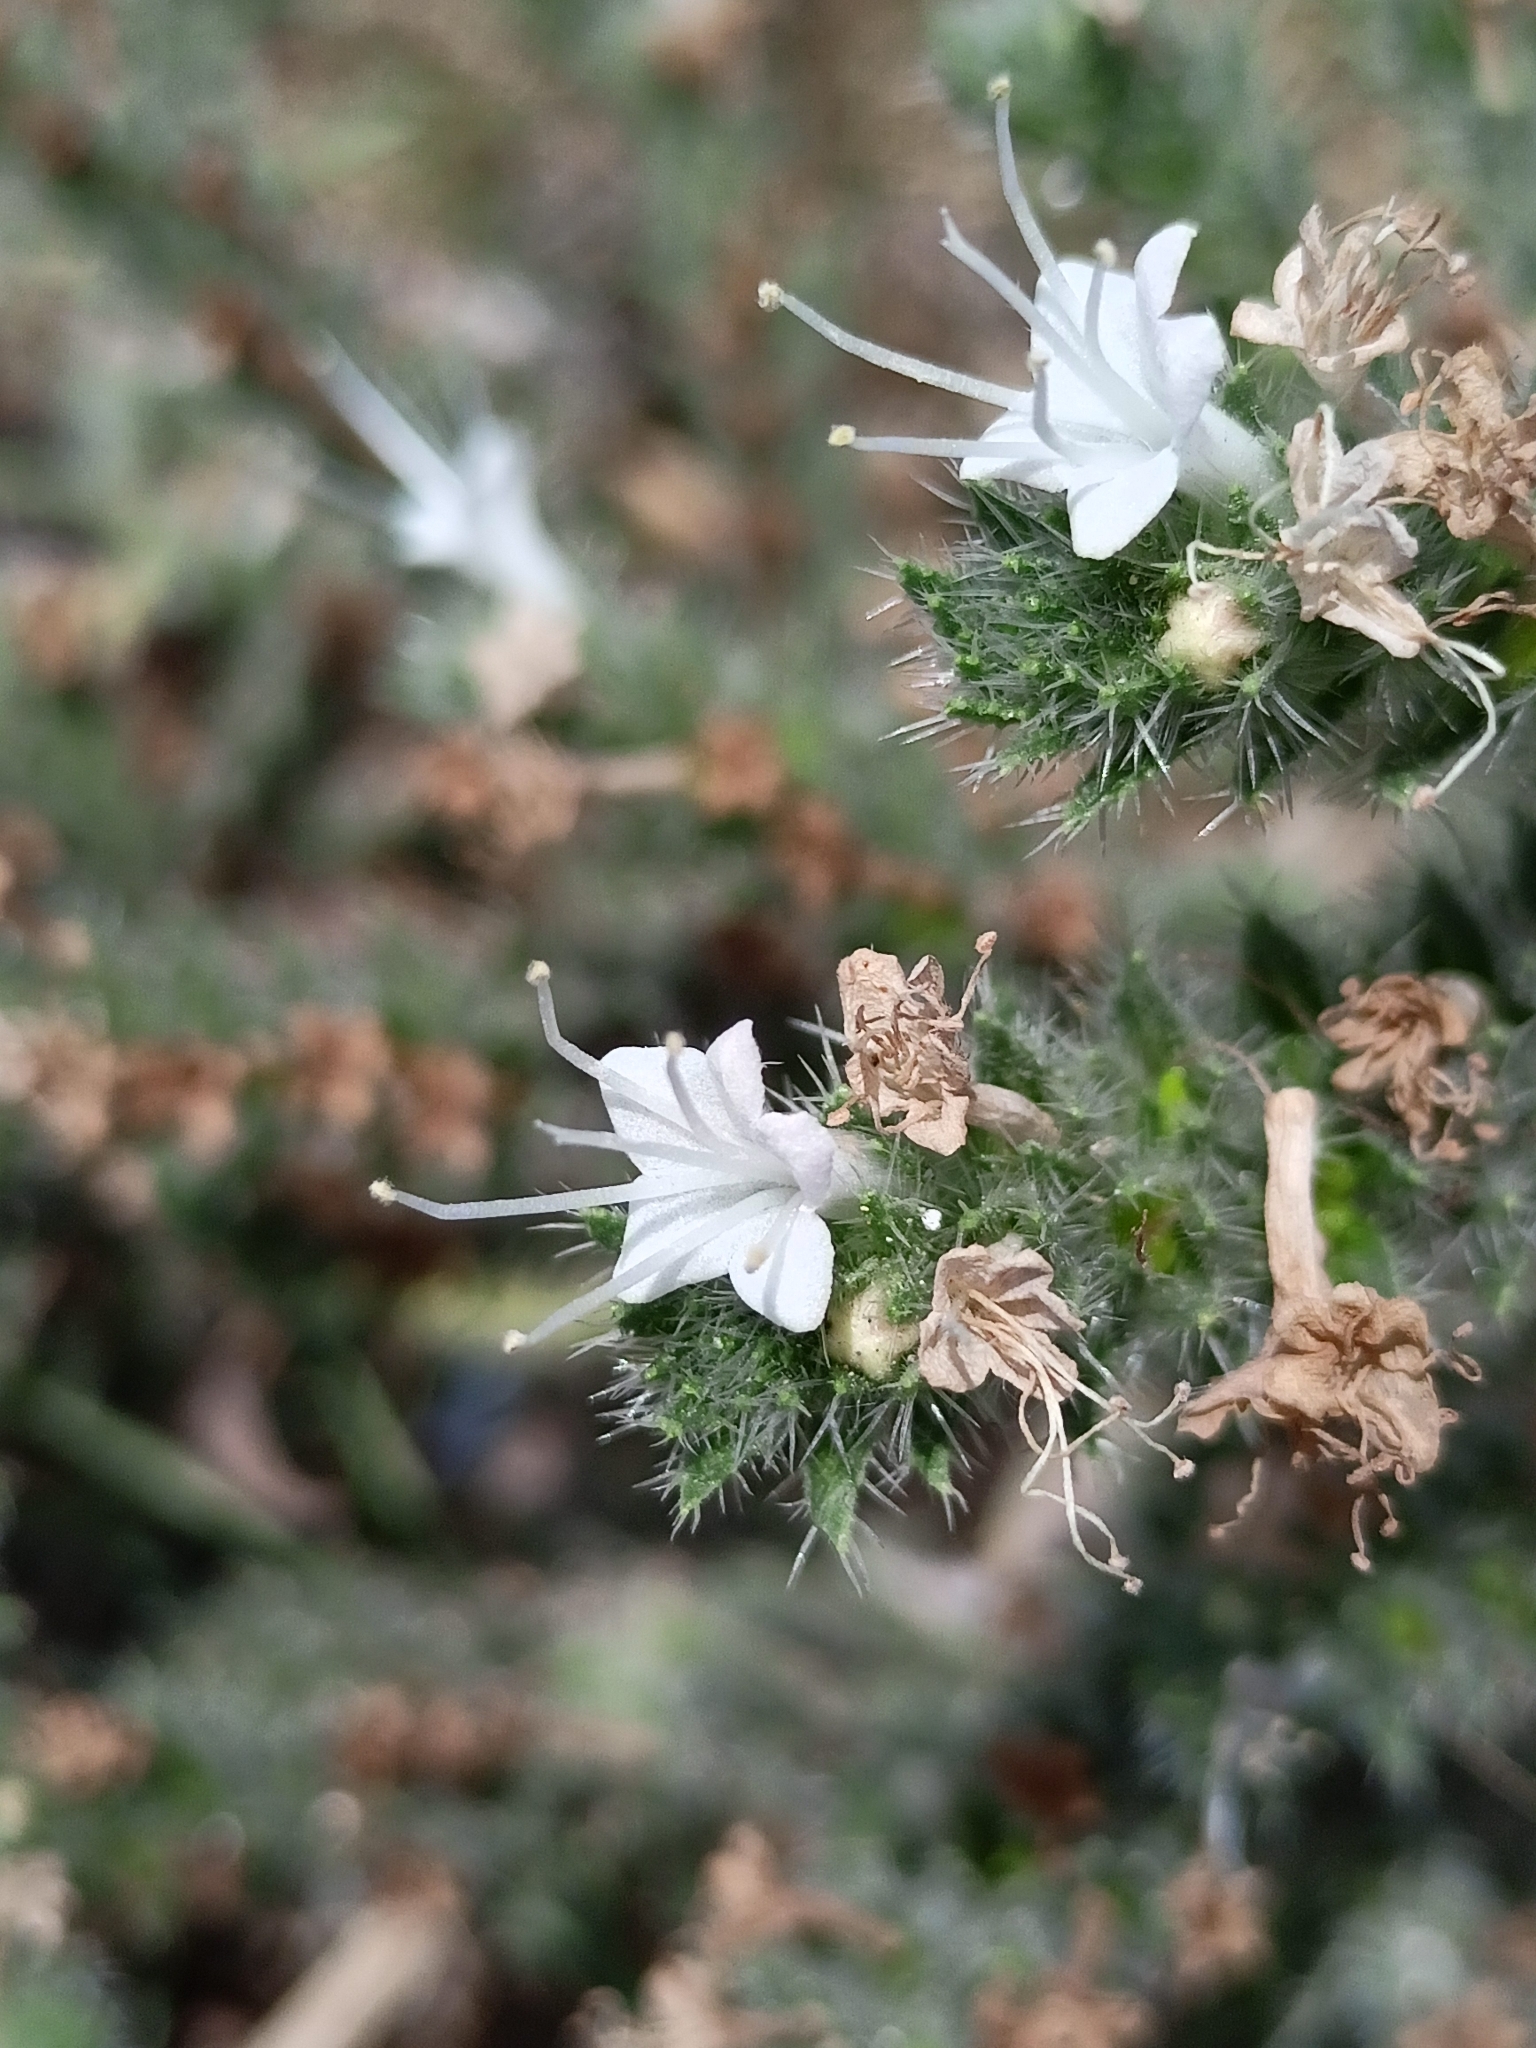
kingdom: Plantae
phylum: Tracheophyta
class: Magnoliopsida
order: Boraginales
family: Boraginaceae
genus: Echium
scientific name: Echium italicum
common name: Italian viper's bugloss
